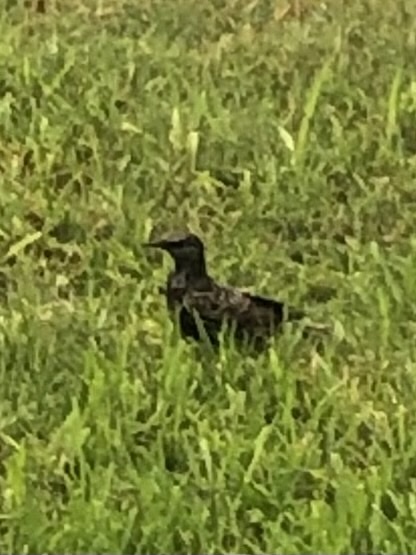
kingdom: Animalia
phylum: Chordata
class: Aves
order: Passeriformes
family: Sturnidae
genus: Sturnus
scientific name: Sturnus vulgaris
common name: Common starling
